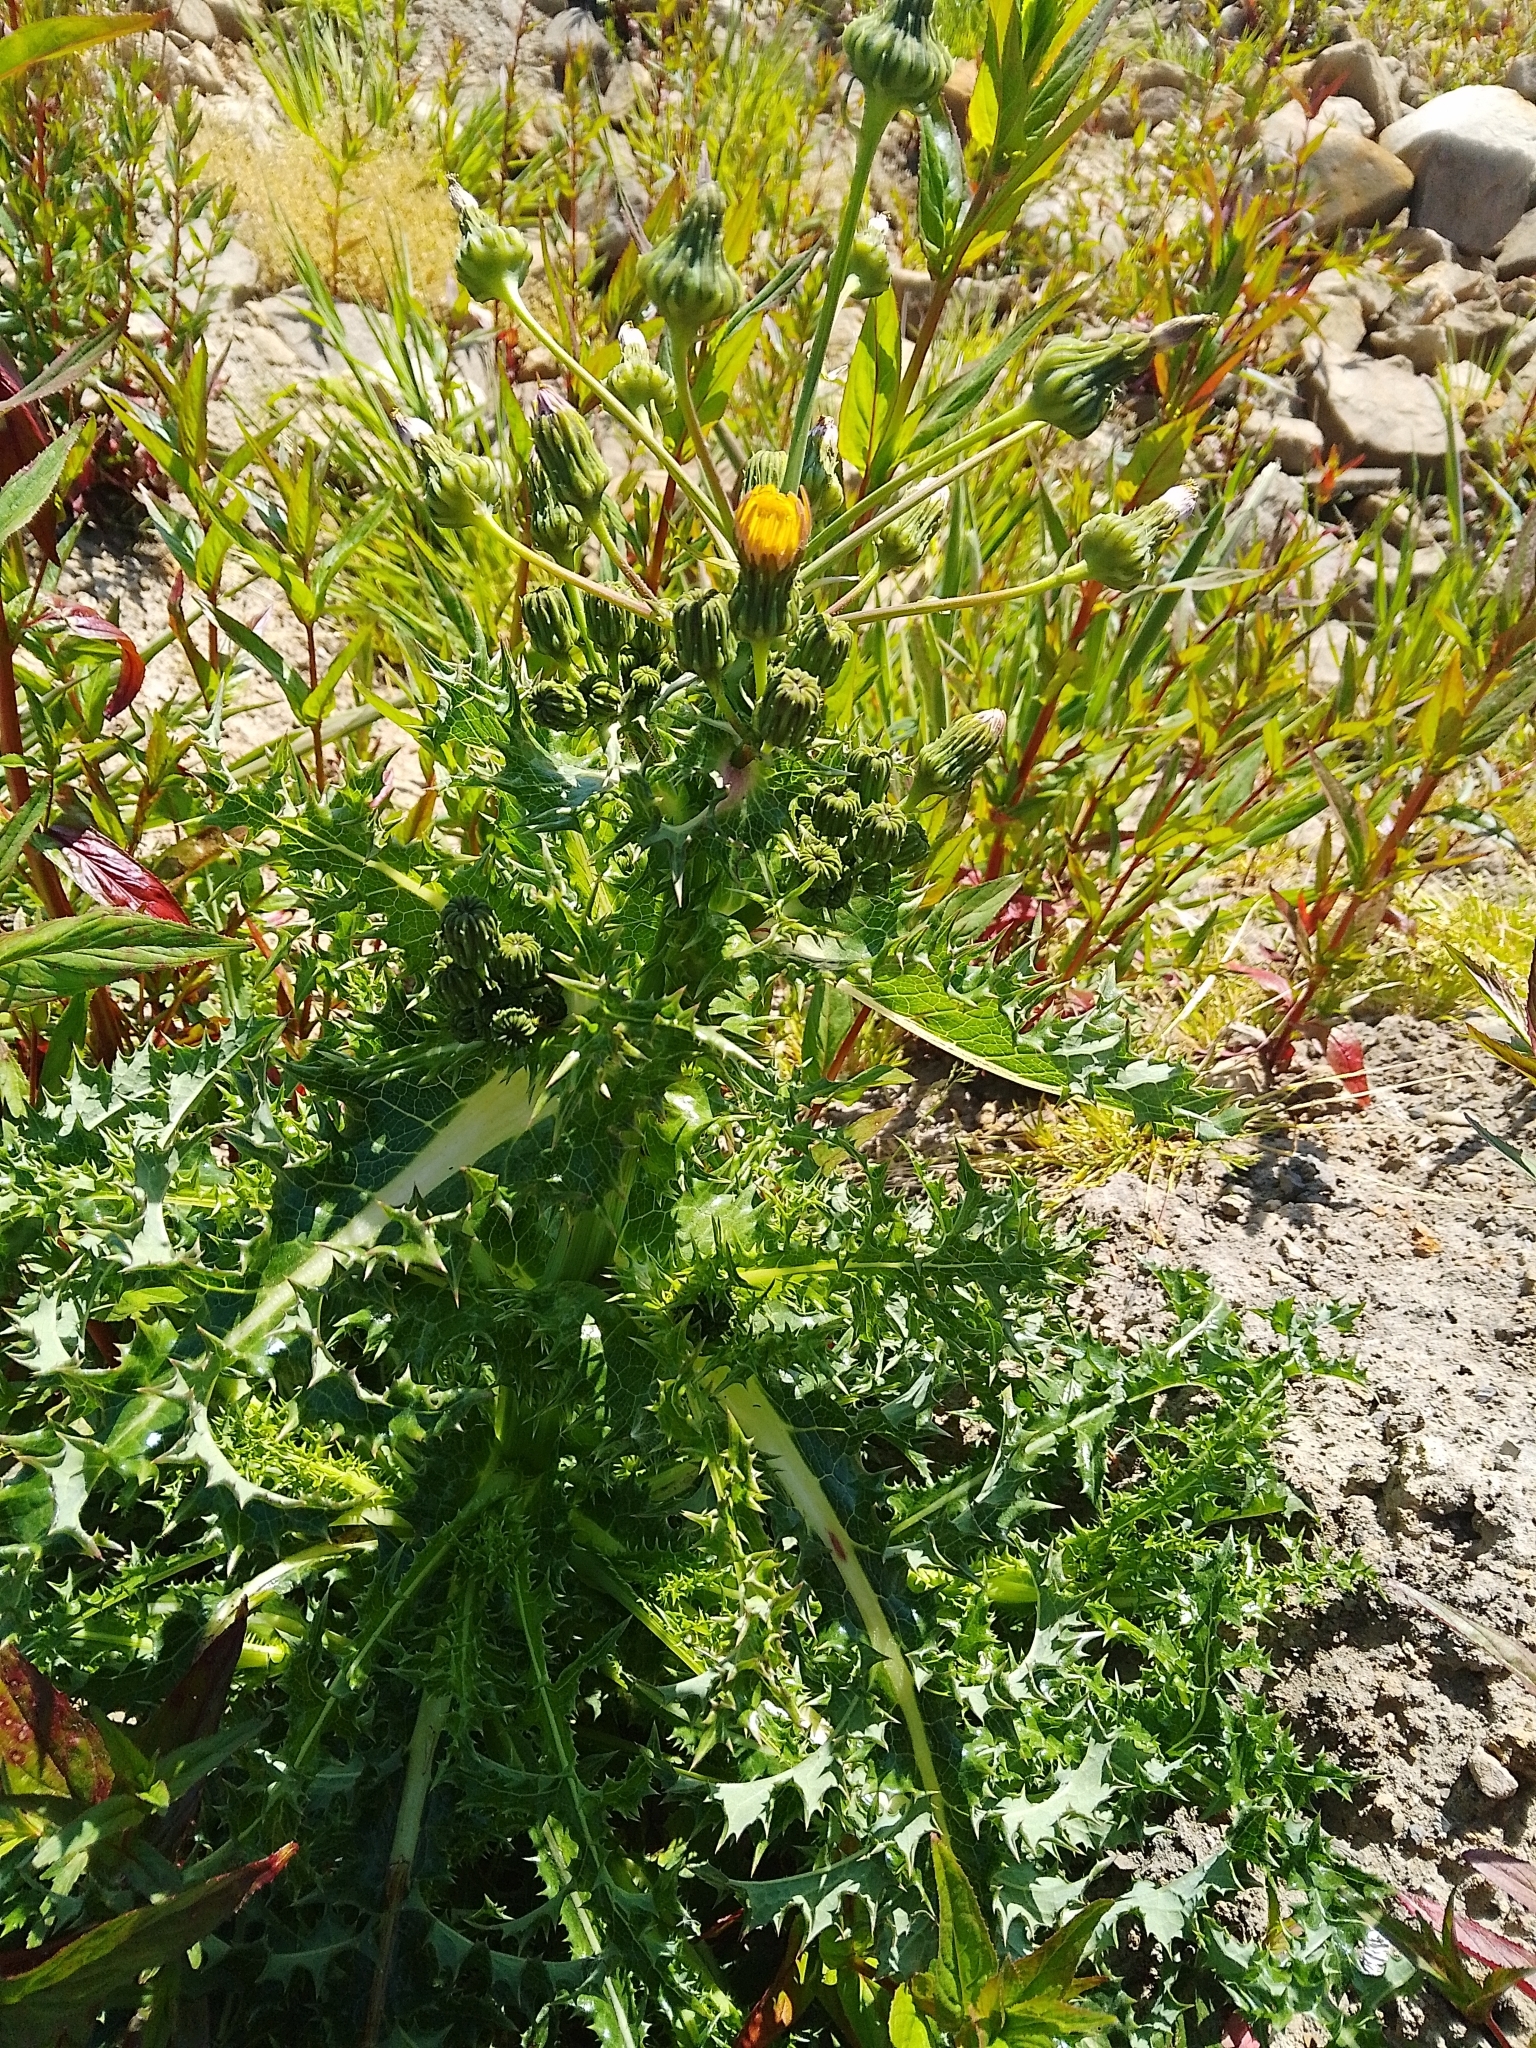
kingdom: Plantae
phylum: Tracheophyta
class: Magnoliopsida
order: Asterales
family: Asteraceae
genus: Sonchus
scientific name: Sonchus asper
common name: Prickly sow-thistle
